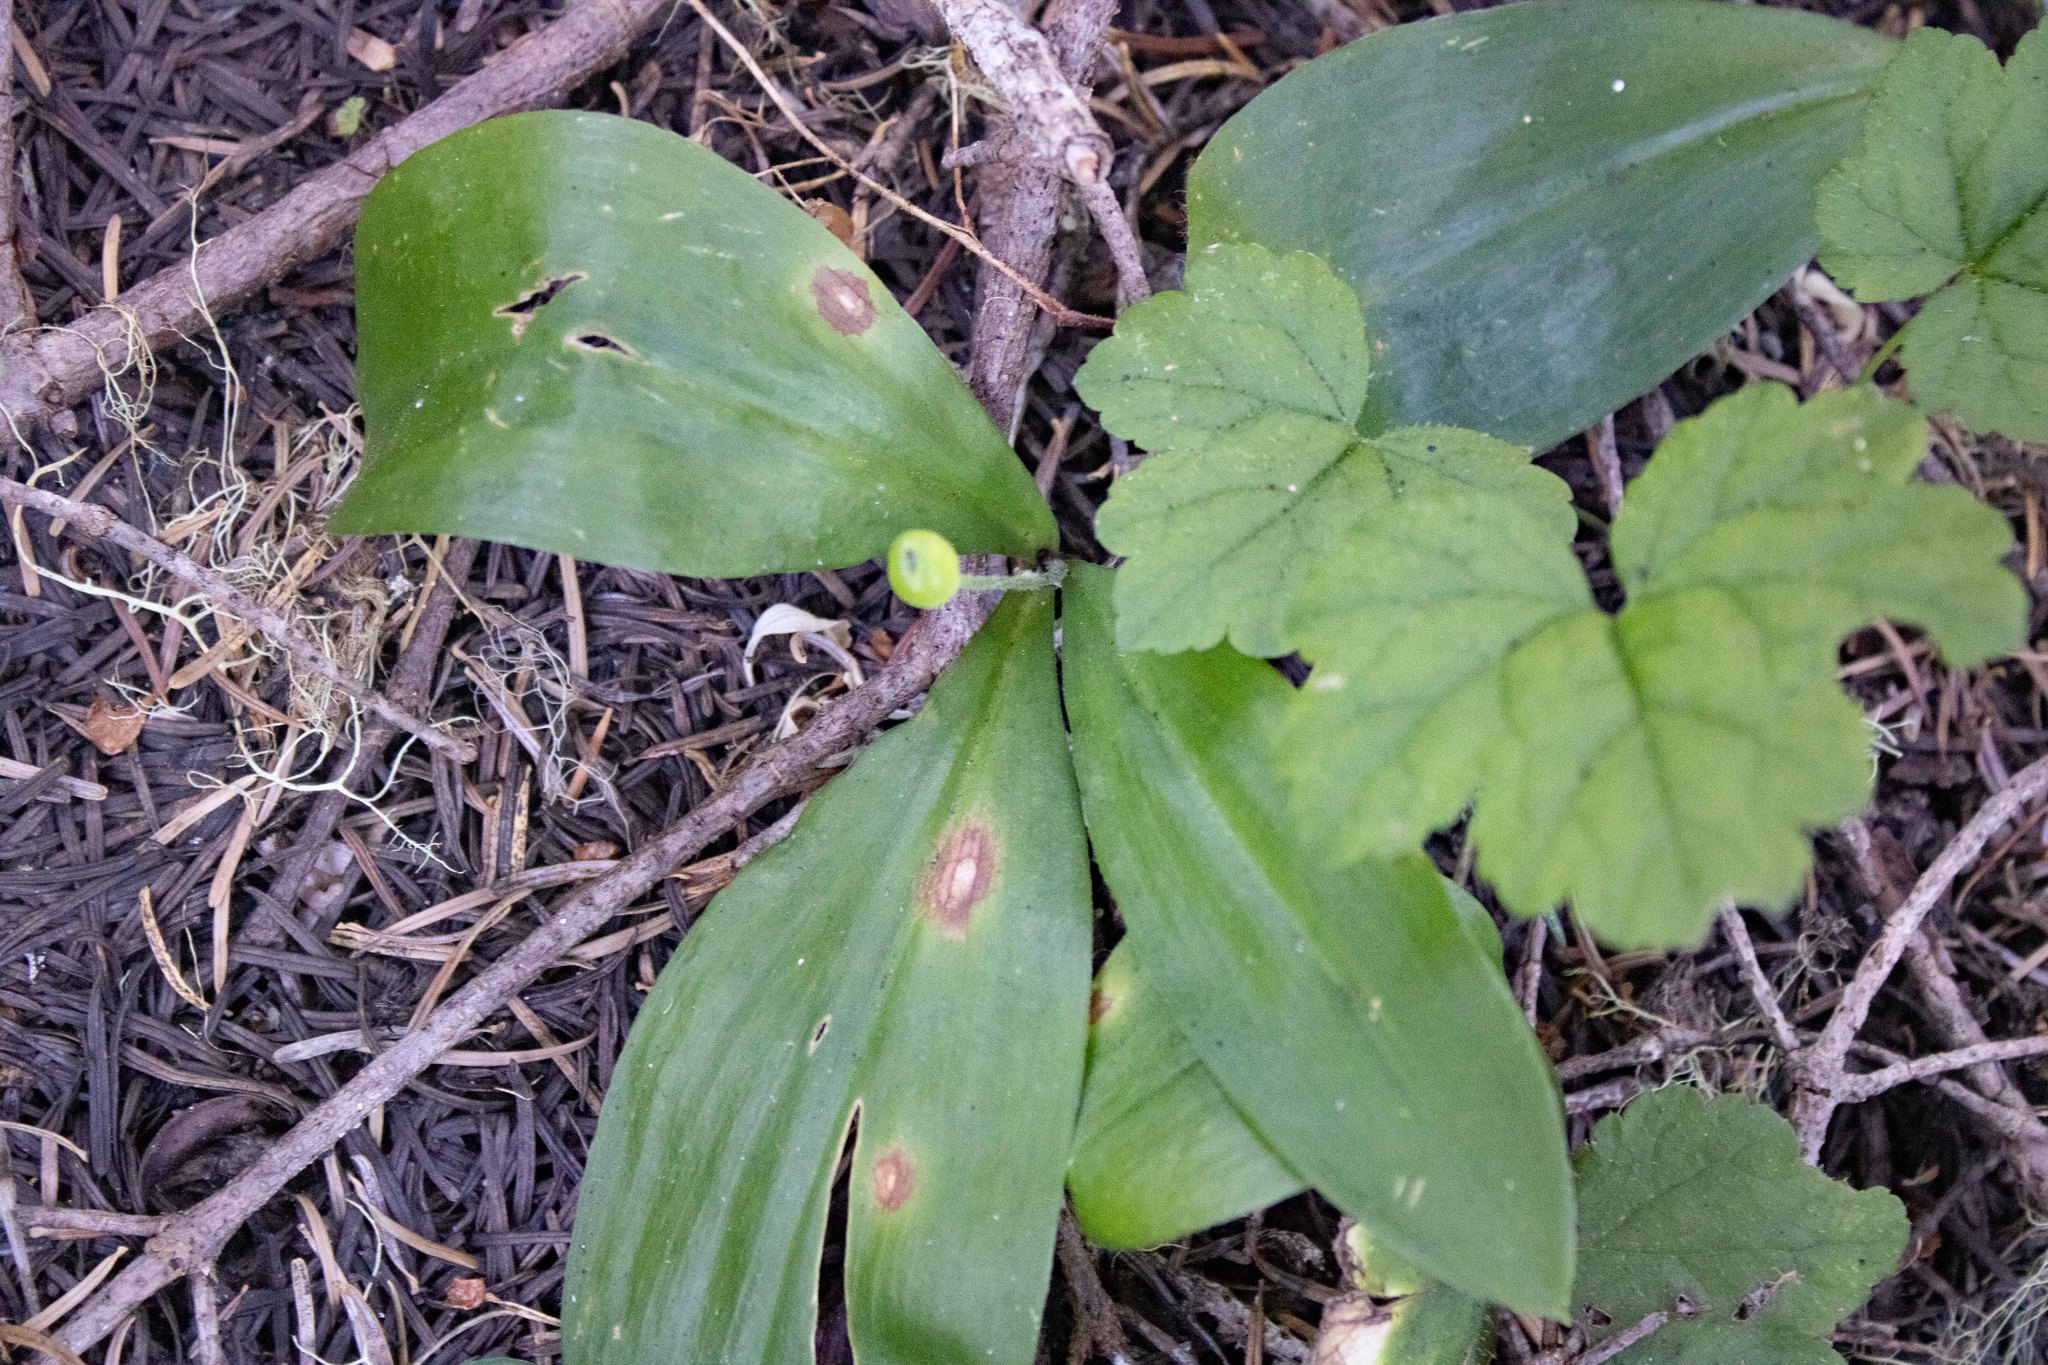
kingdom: Plantae
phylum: Tracheophyta
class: Liliopsida
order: Liliales
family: Liliaceae
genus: Clintonia
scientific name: Clintonia uniflora
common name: Queen's cup
